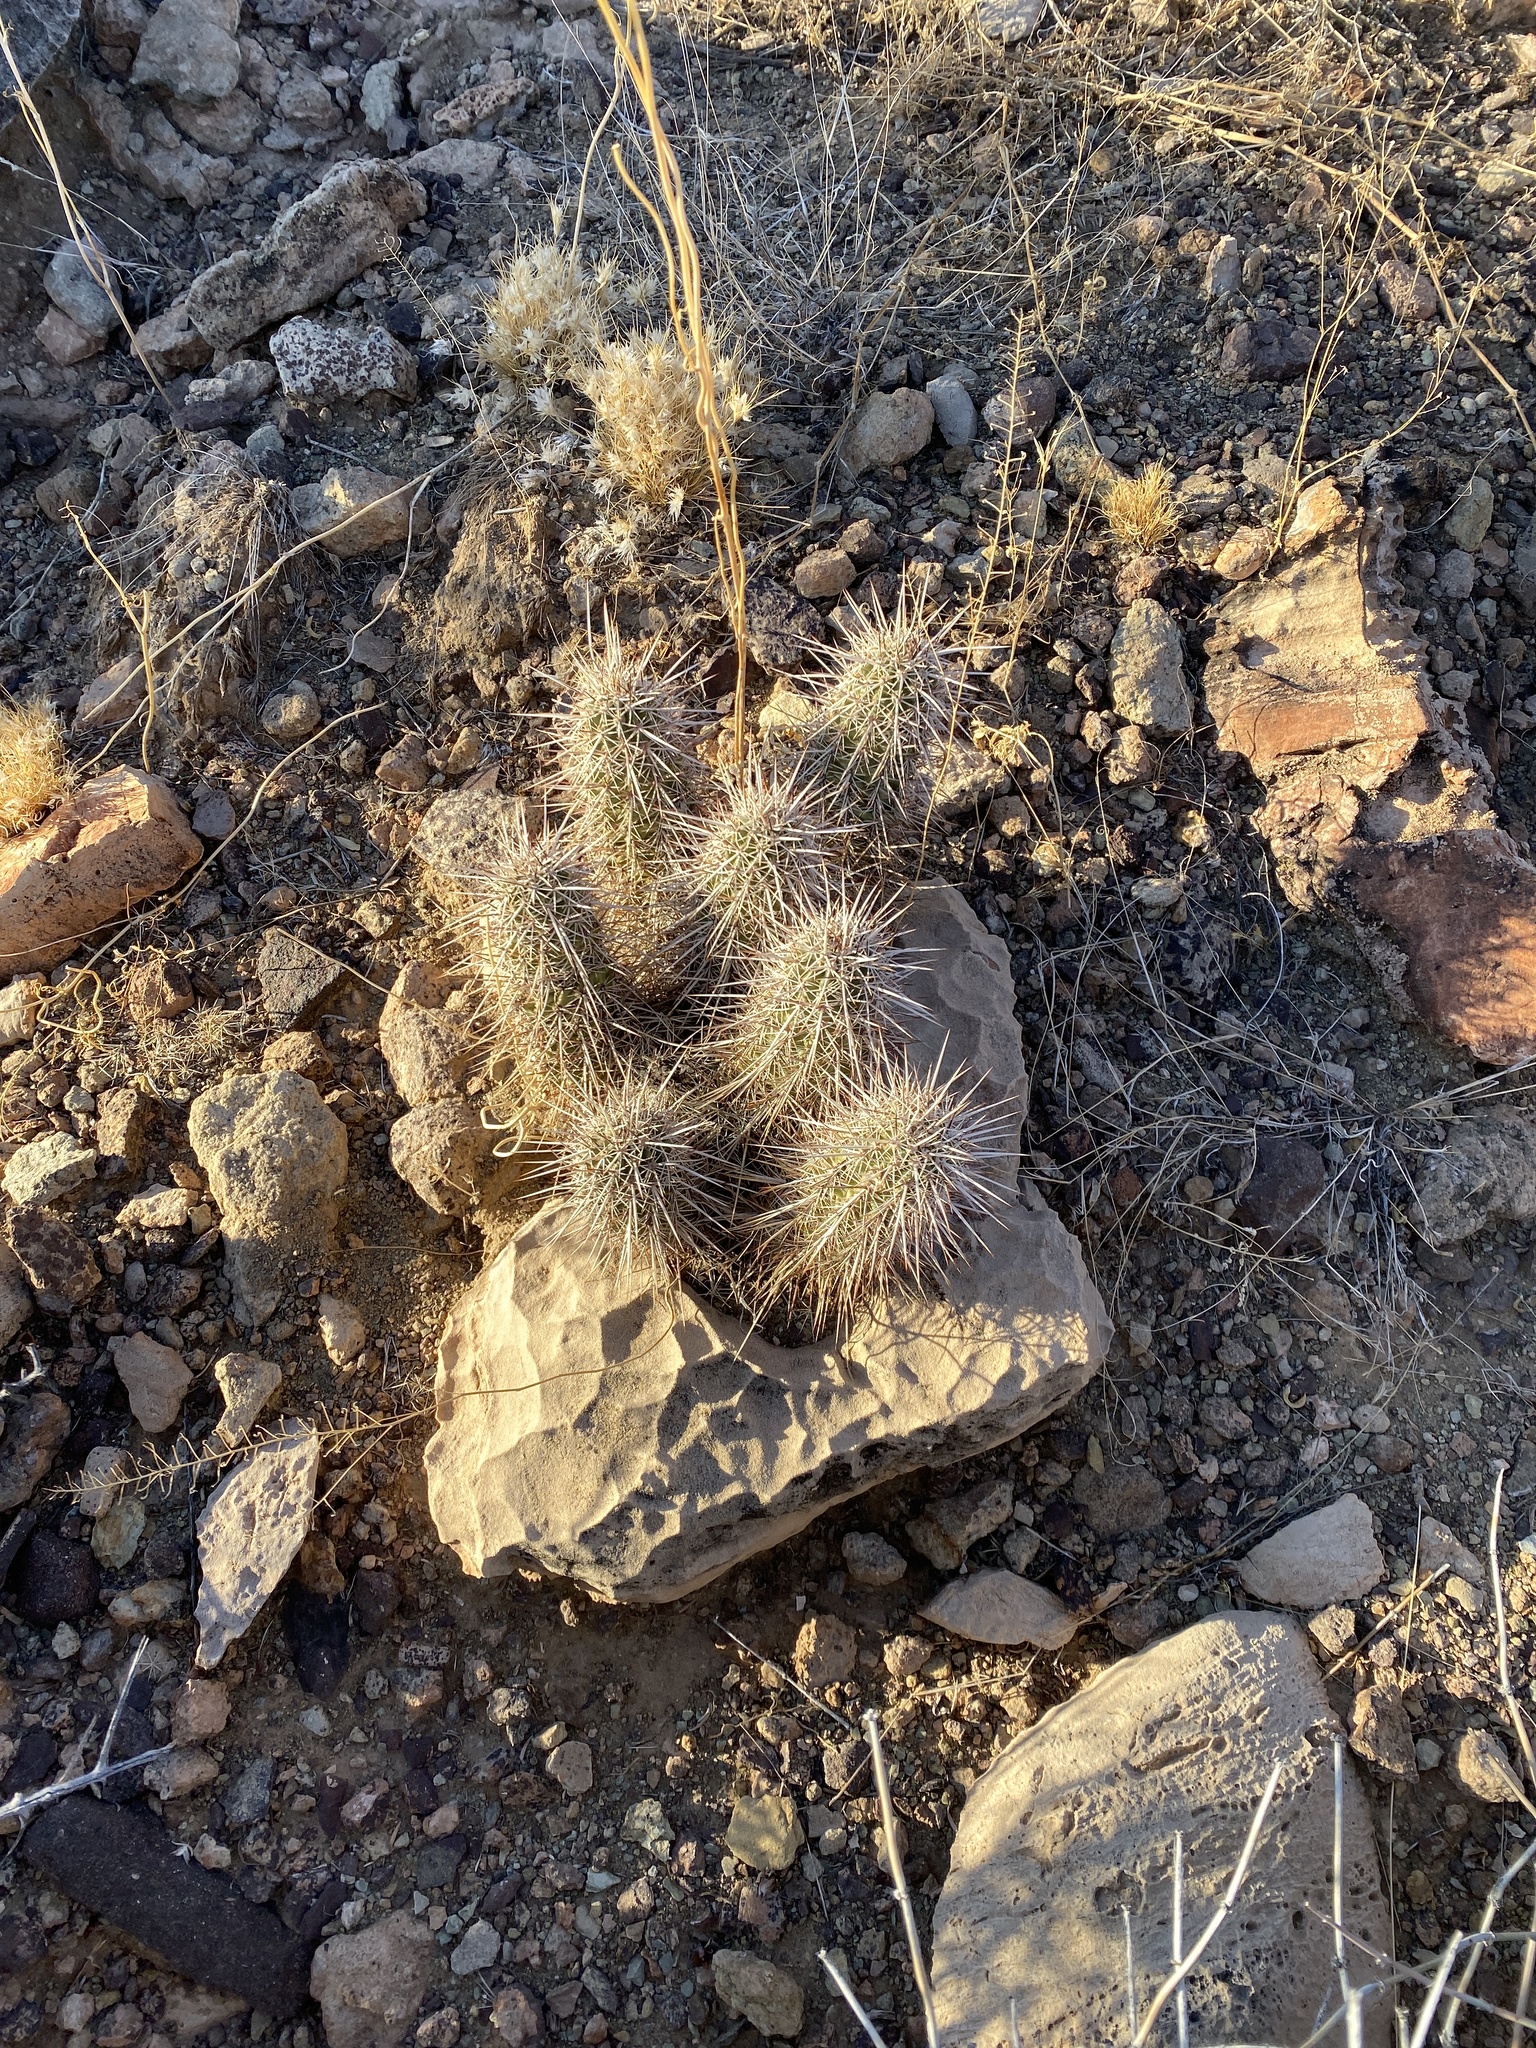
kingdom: Plantae
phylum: Tracheophyta
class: Magnoliopsida
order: Caryophyllales
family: Cactaceae
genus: Echinocereus
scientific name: Echinocereus engelmannii
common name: Engelmann's hedgehog cactus
